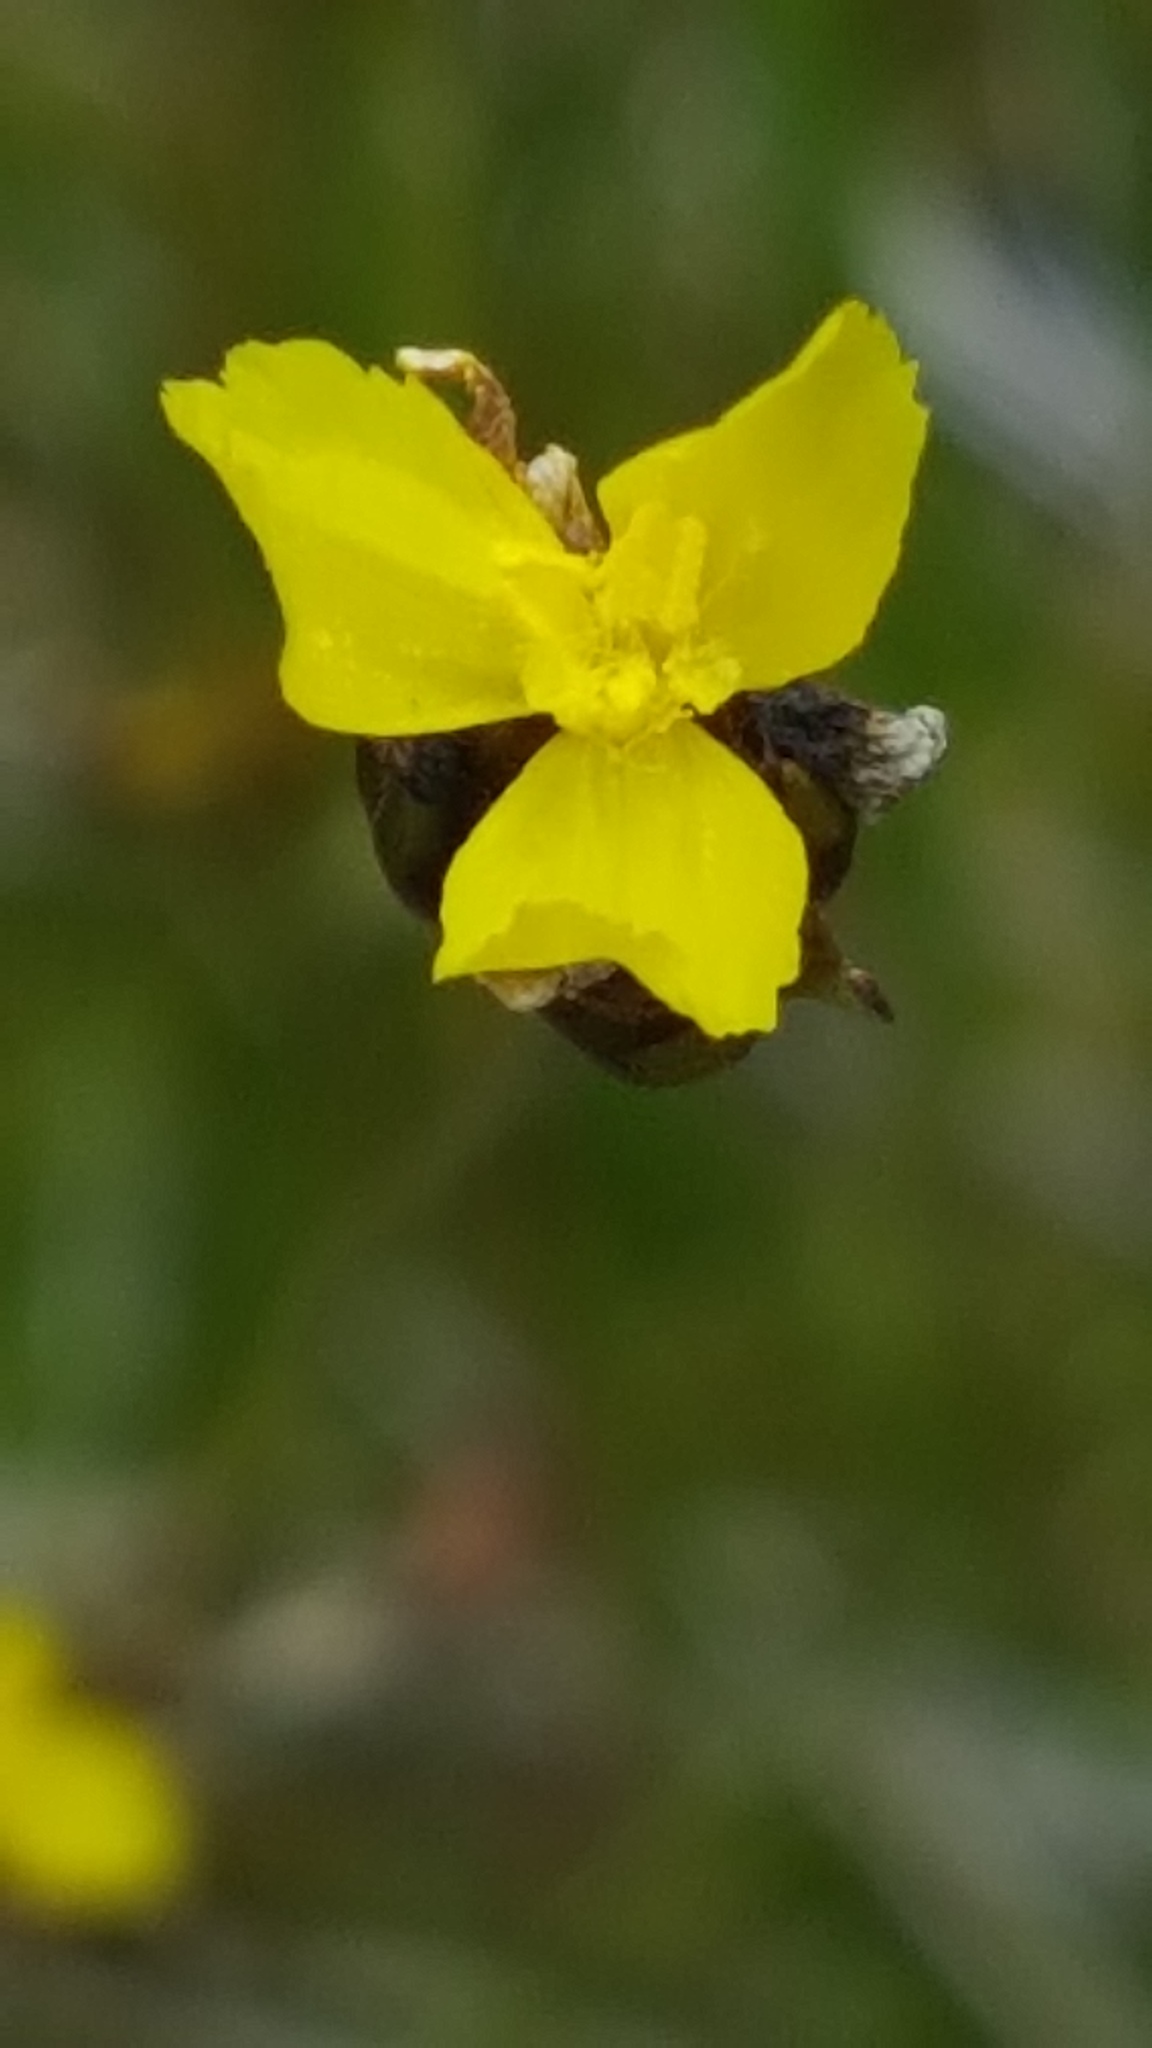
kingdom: Plantae
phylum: Tracheophyta
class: Liliopsida
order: Poales
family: Xyridaceae
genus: Xyris
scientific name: Xyris montana
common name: Northern yellow-eyed-grass
